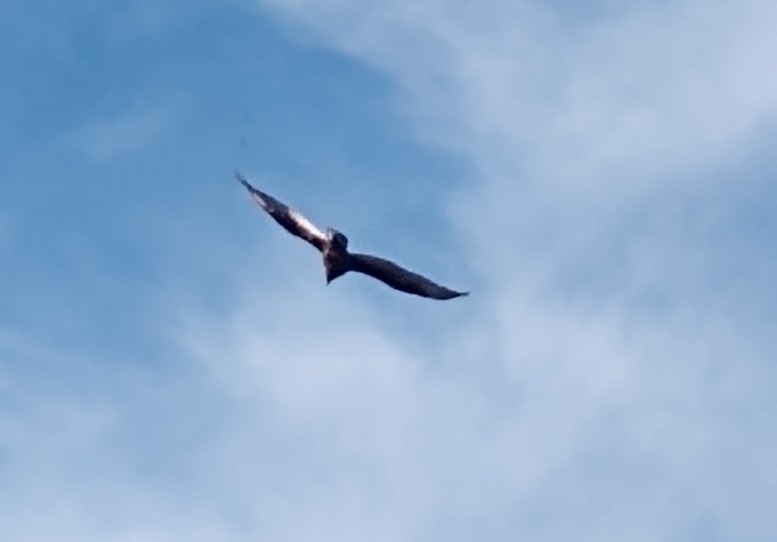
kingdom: Animalia
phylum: Chordata
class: Aves
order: Accipitriformes
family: Cathartidae
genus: Cathartes
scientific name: Cathartes aura
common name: Turkey vulture
